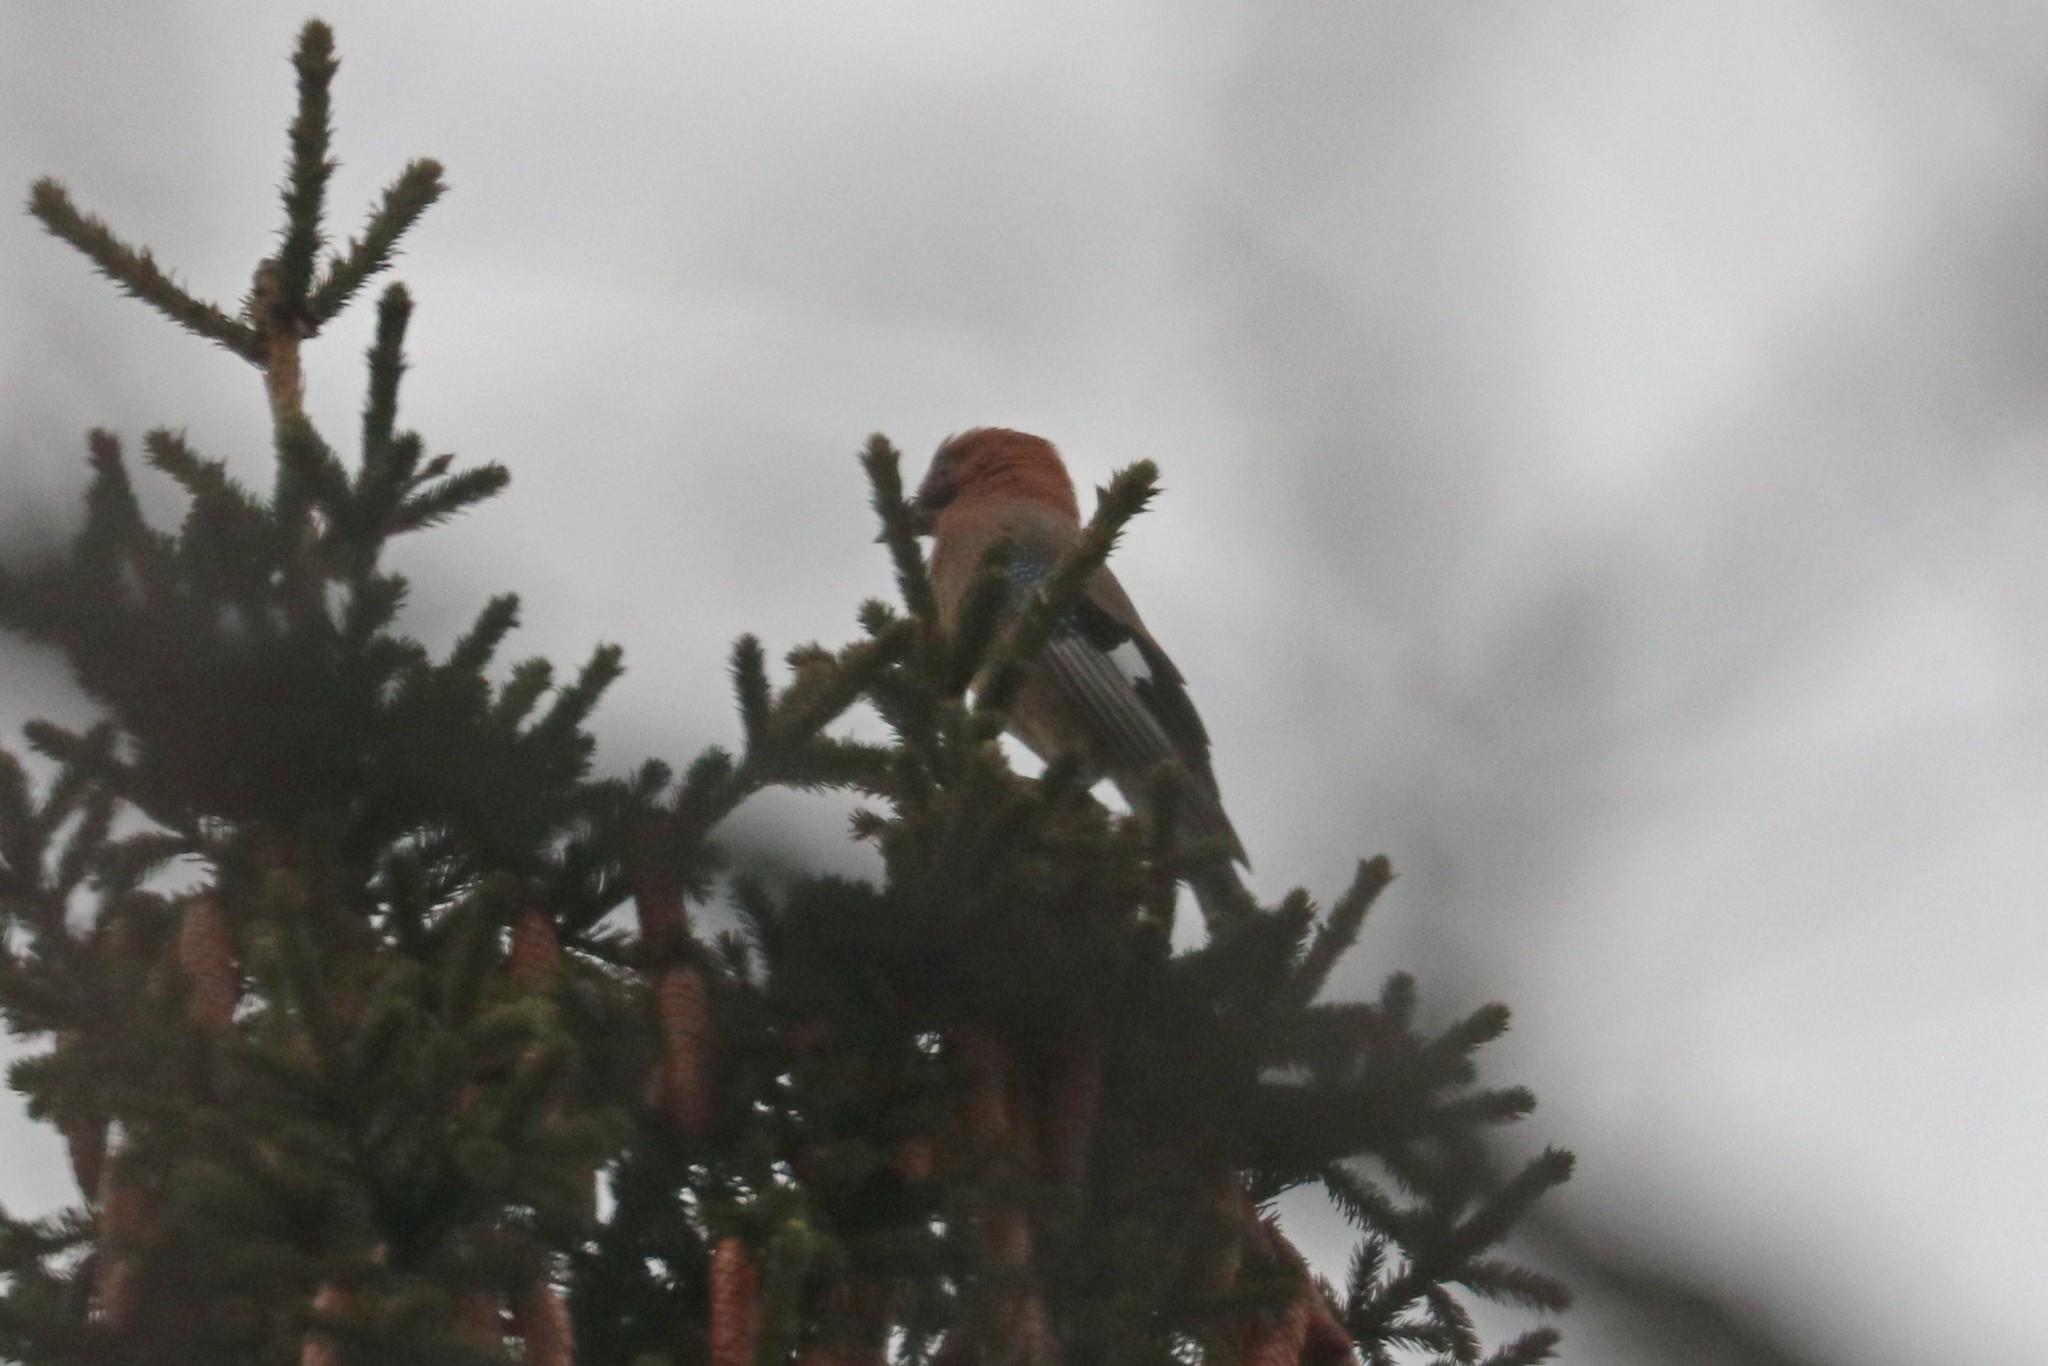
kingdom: Animalia
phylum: Chordata
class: Aves
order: Passeriformes
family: Corvidae
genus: Garrulus
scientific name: Garrulus glandarius
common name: Eurasian jay
